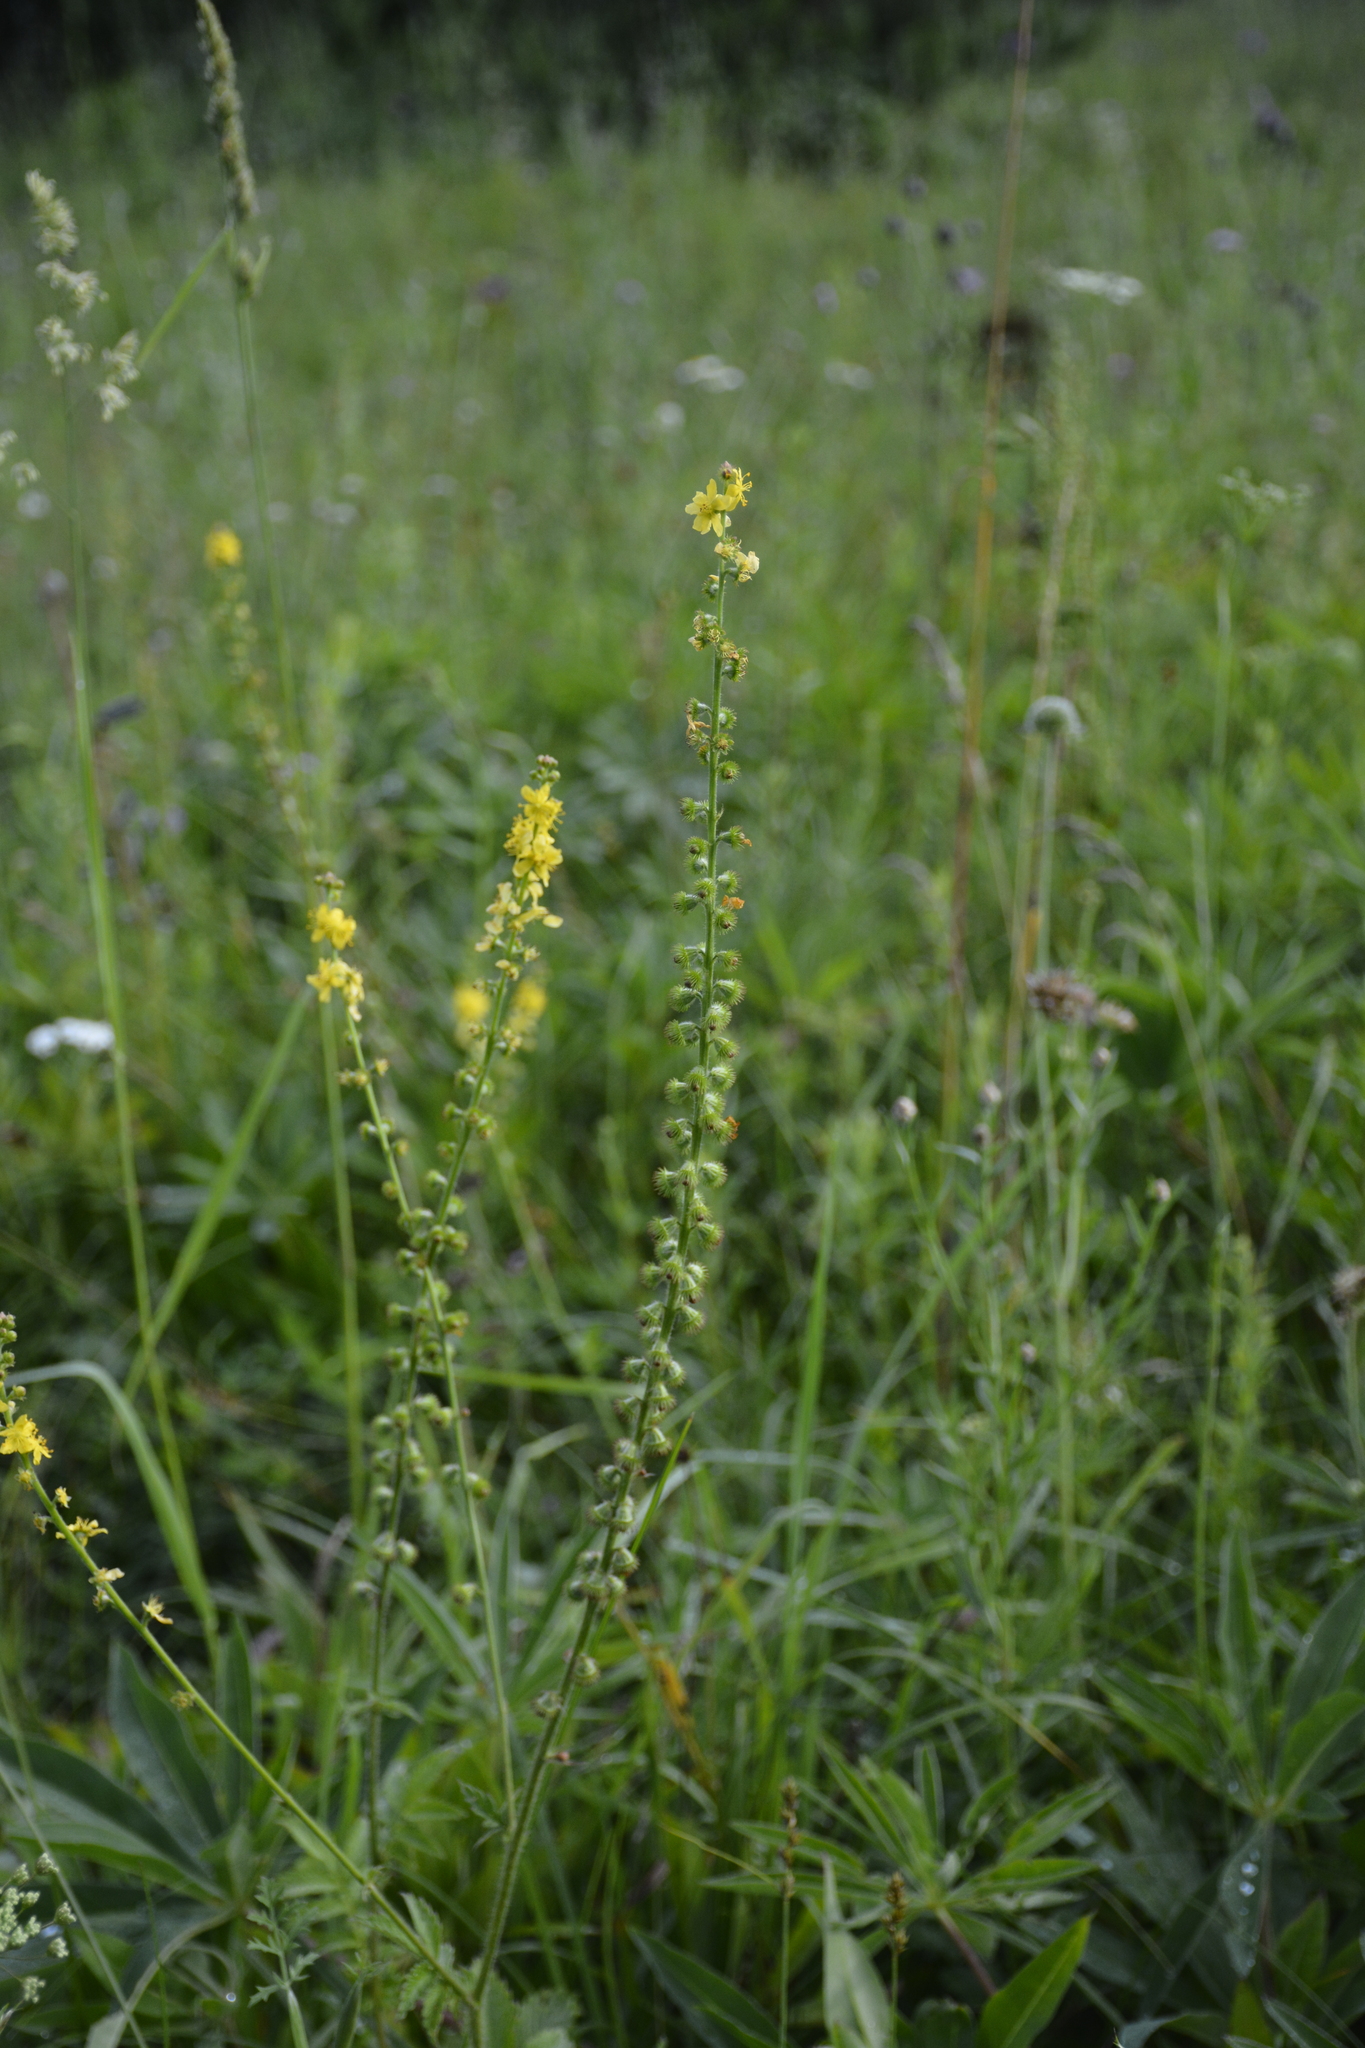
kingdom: Plantae
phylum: Tracheophyta
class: Magnoliopsida
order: Rosales
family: Rosaceae
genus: Agrimonia
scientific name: Agrimonia eupatoria
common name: Agrimony
